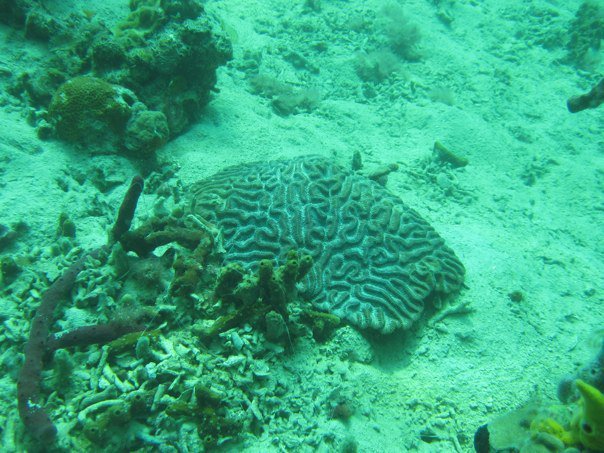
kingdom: Animalia
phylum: Cnidaria
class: Anthozoa
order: Scleractinia
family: Faviidae
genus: Colpophyllia
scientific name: Colpophyllia natans
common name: Boulder brain coral
